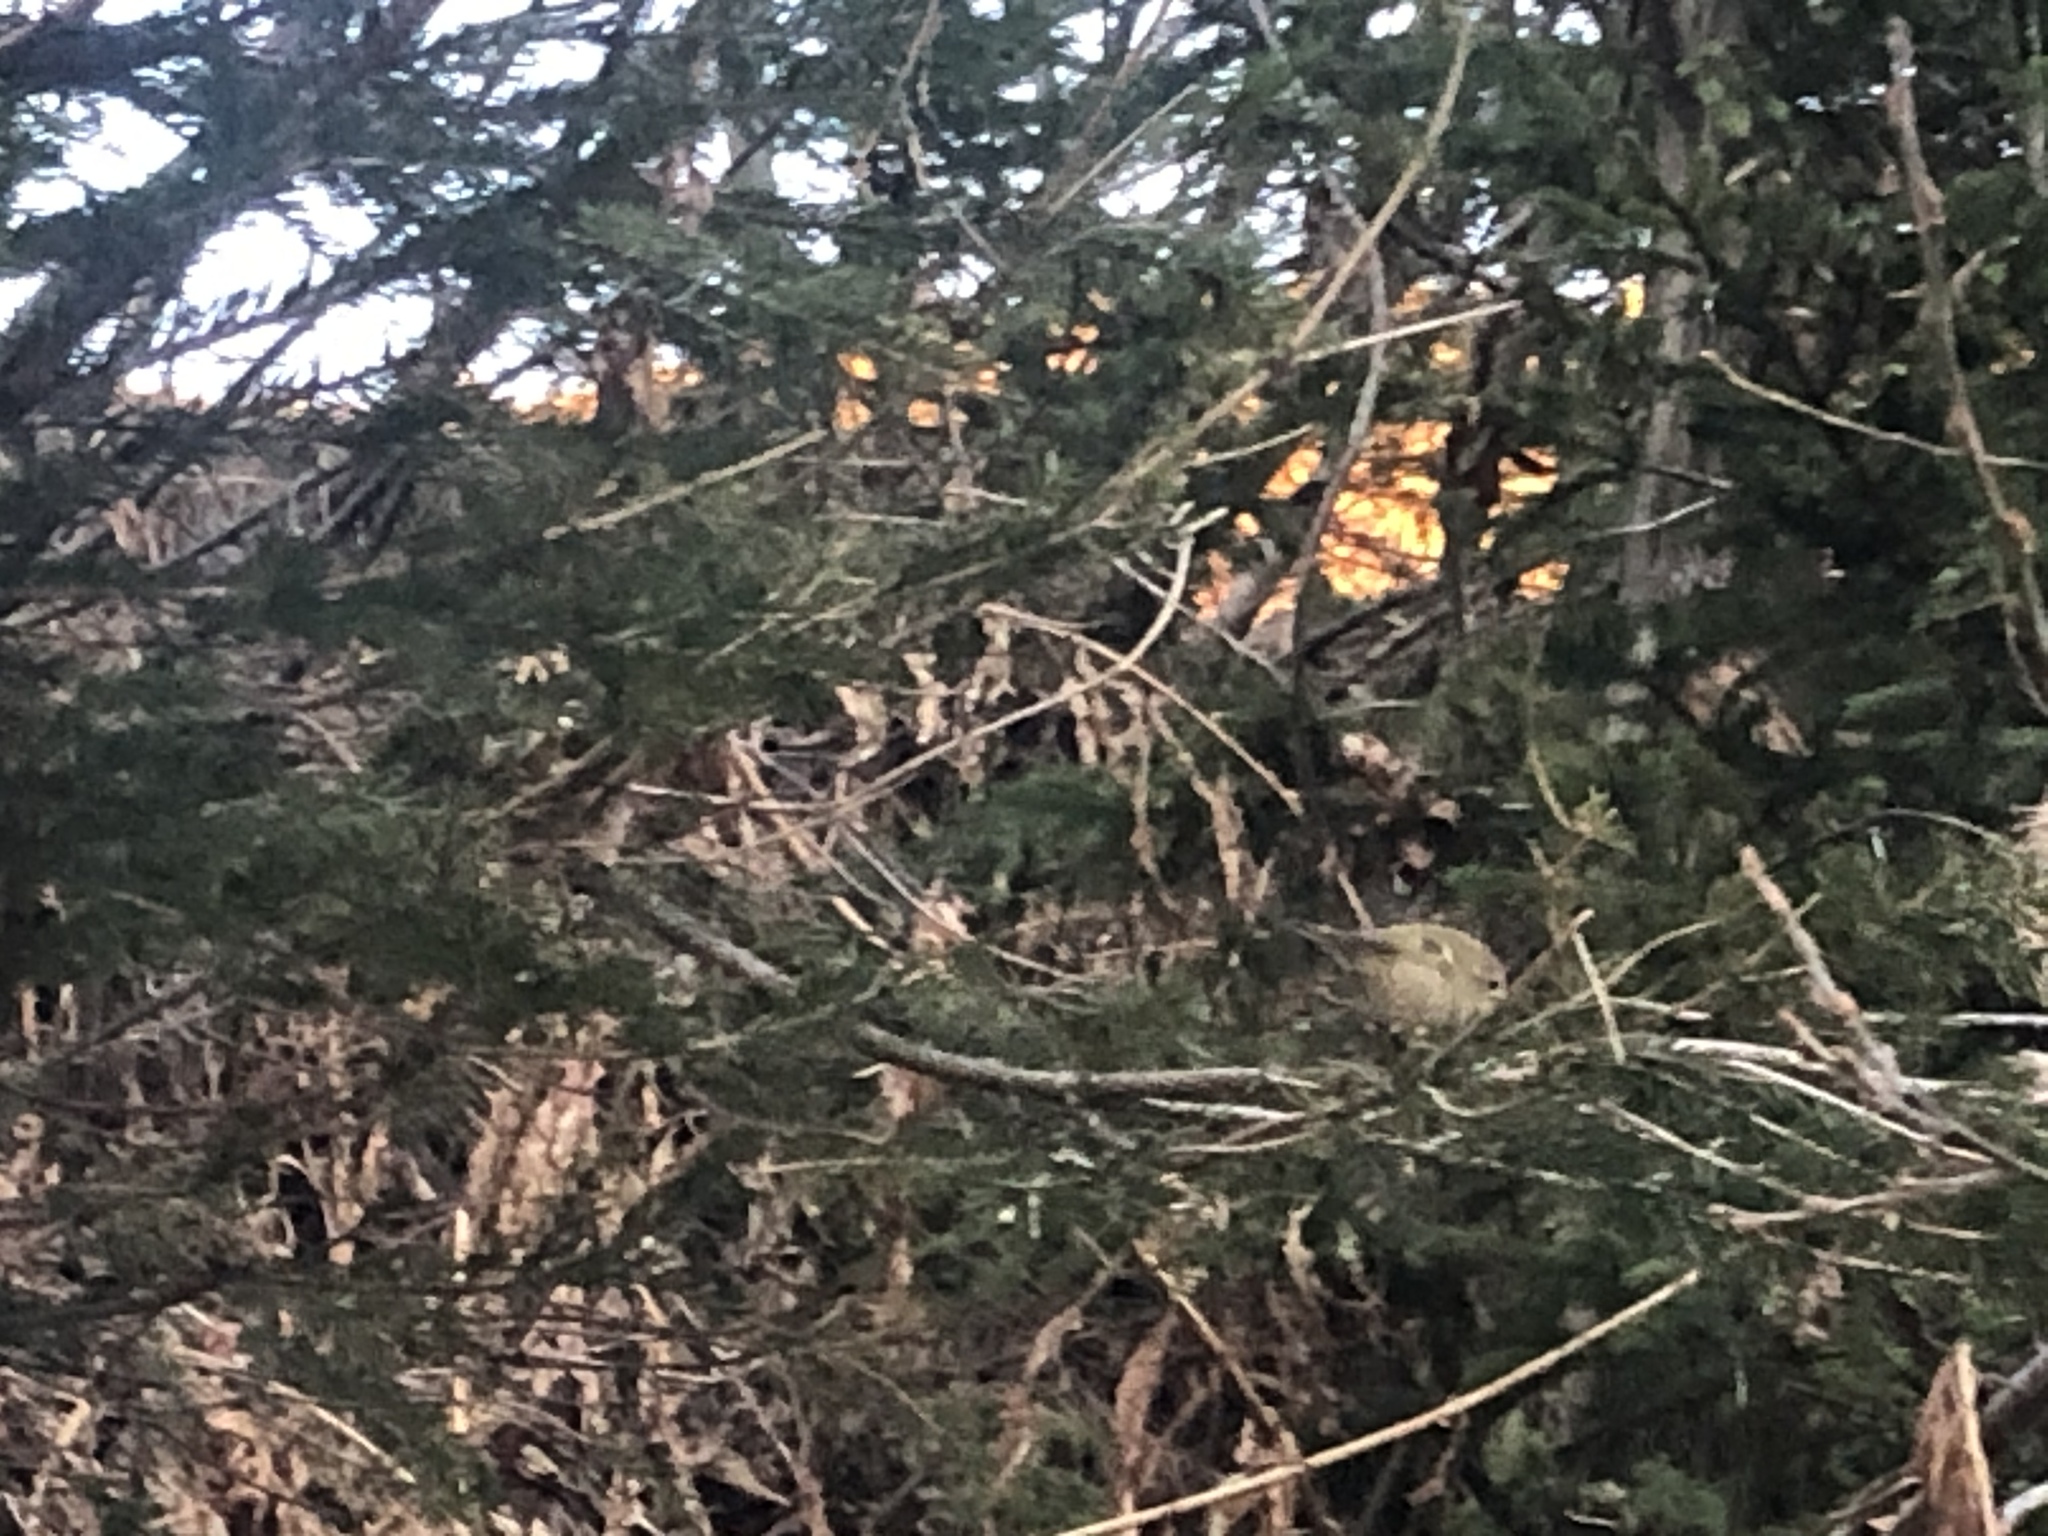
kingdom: Animalia
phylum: Chordata
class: Aves
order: Passeriformes
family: Regulidae
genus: Regulus
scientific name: Regulus regulus
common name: Goldcrest
